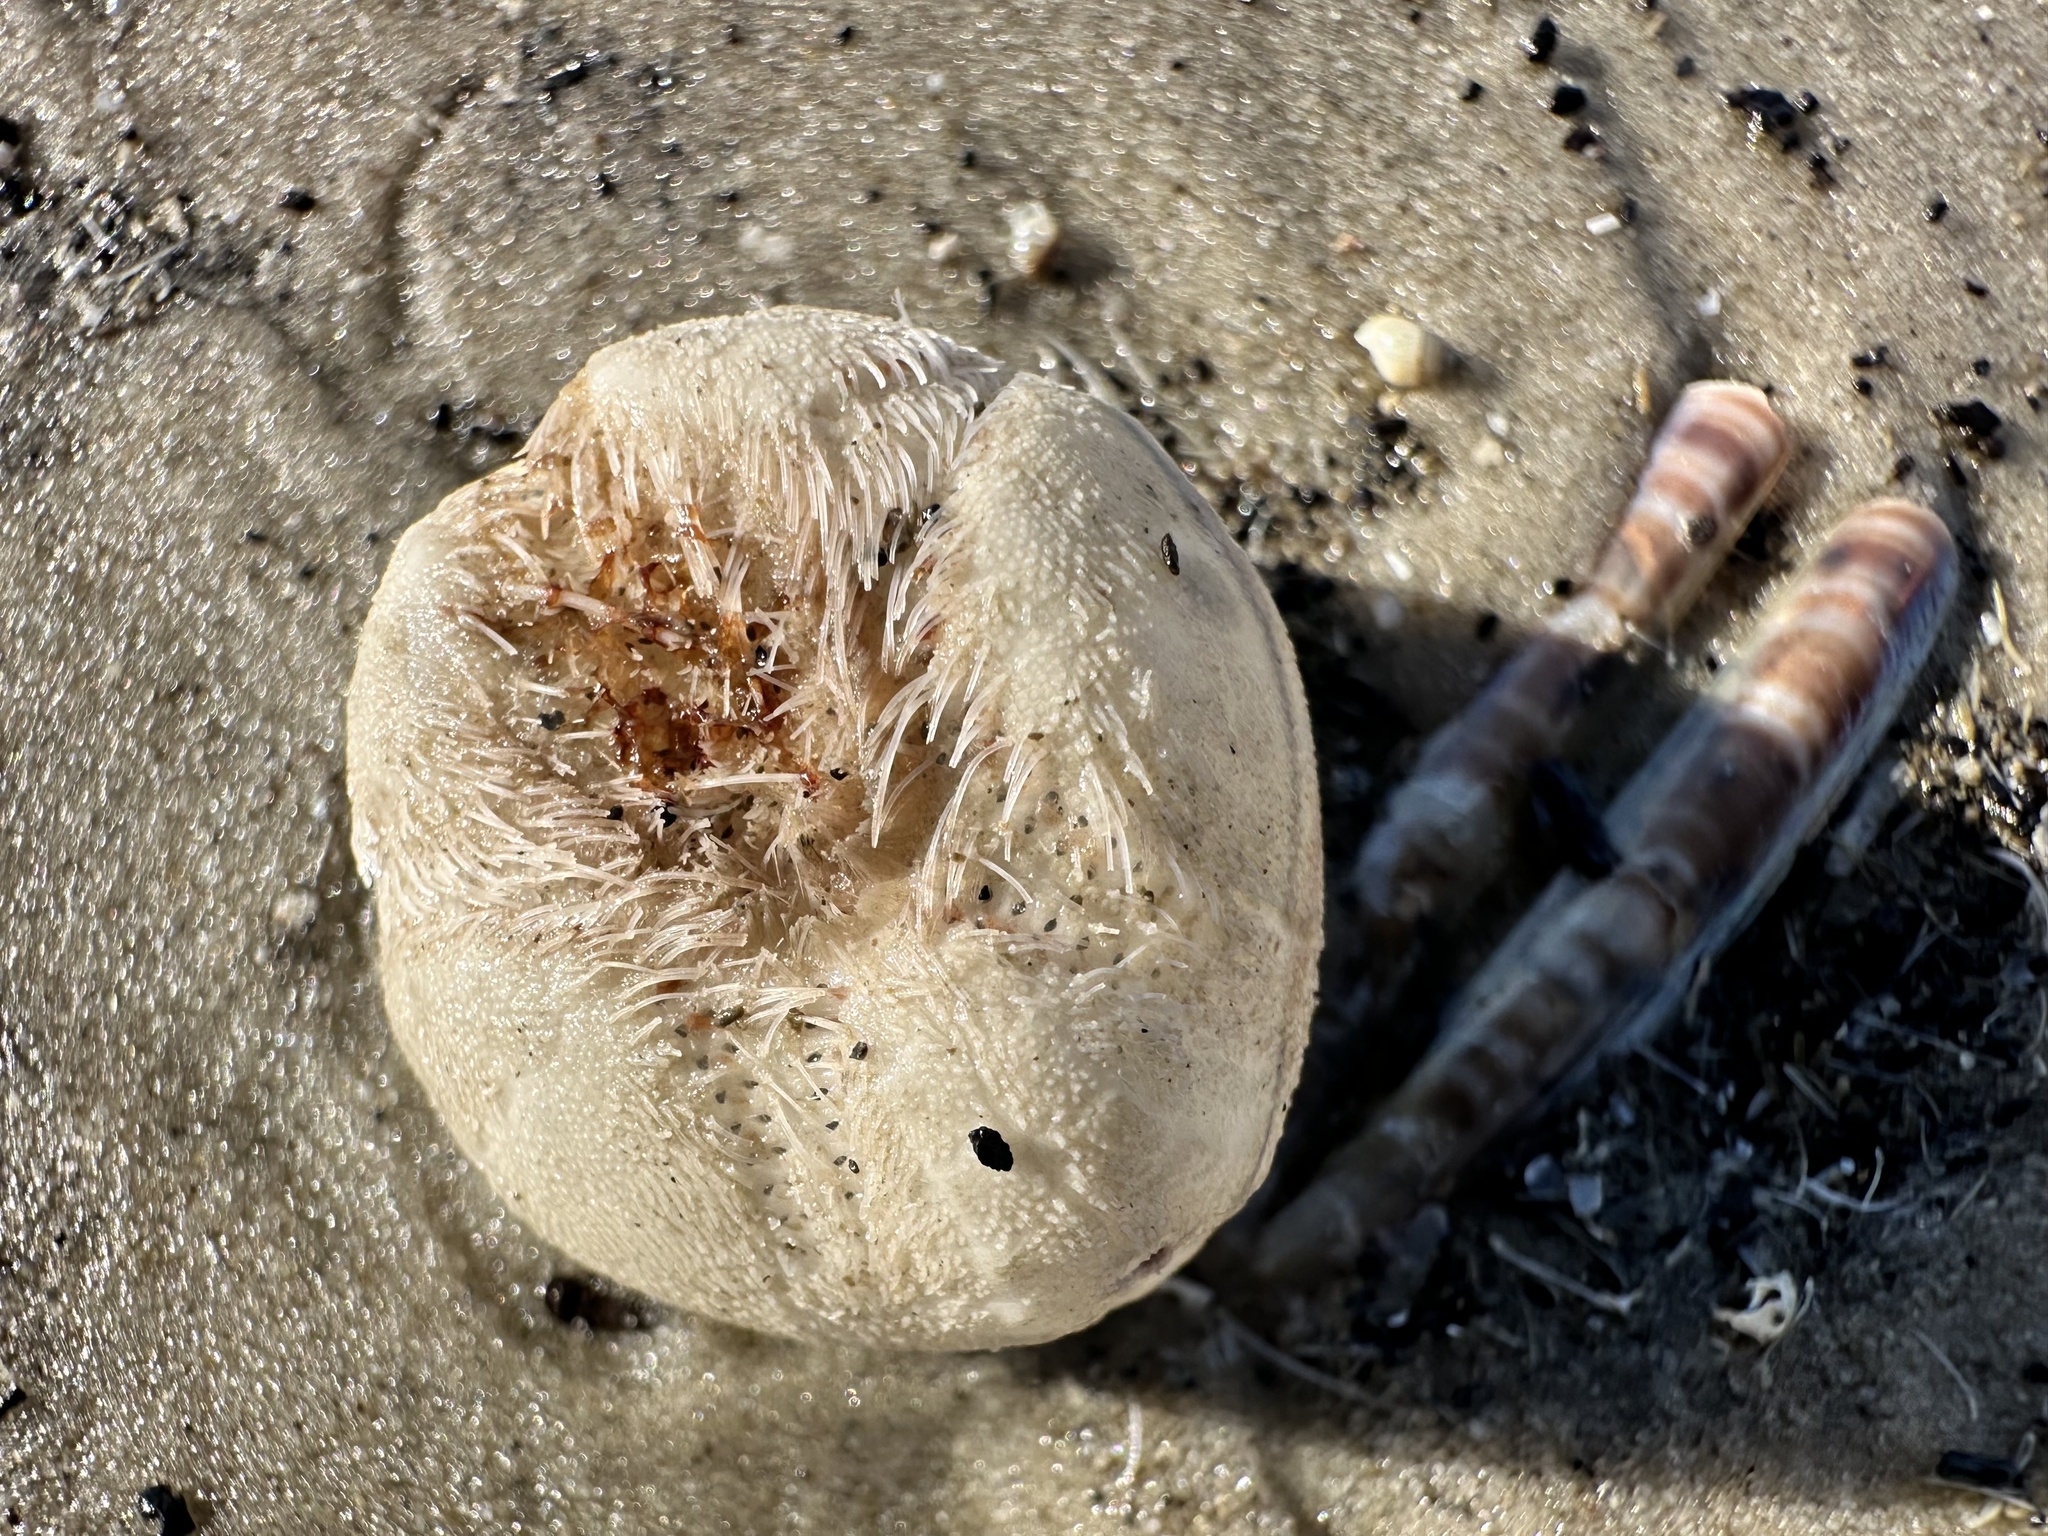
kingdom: Animalia
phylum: Echinodermata
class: Echinoidea
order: Spatangoida
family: Loveniidae
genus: Echinocardium
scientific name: Echinocardium cordatum
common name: Heart-urchin
